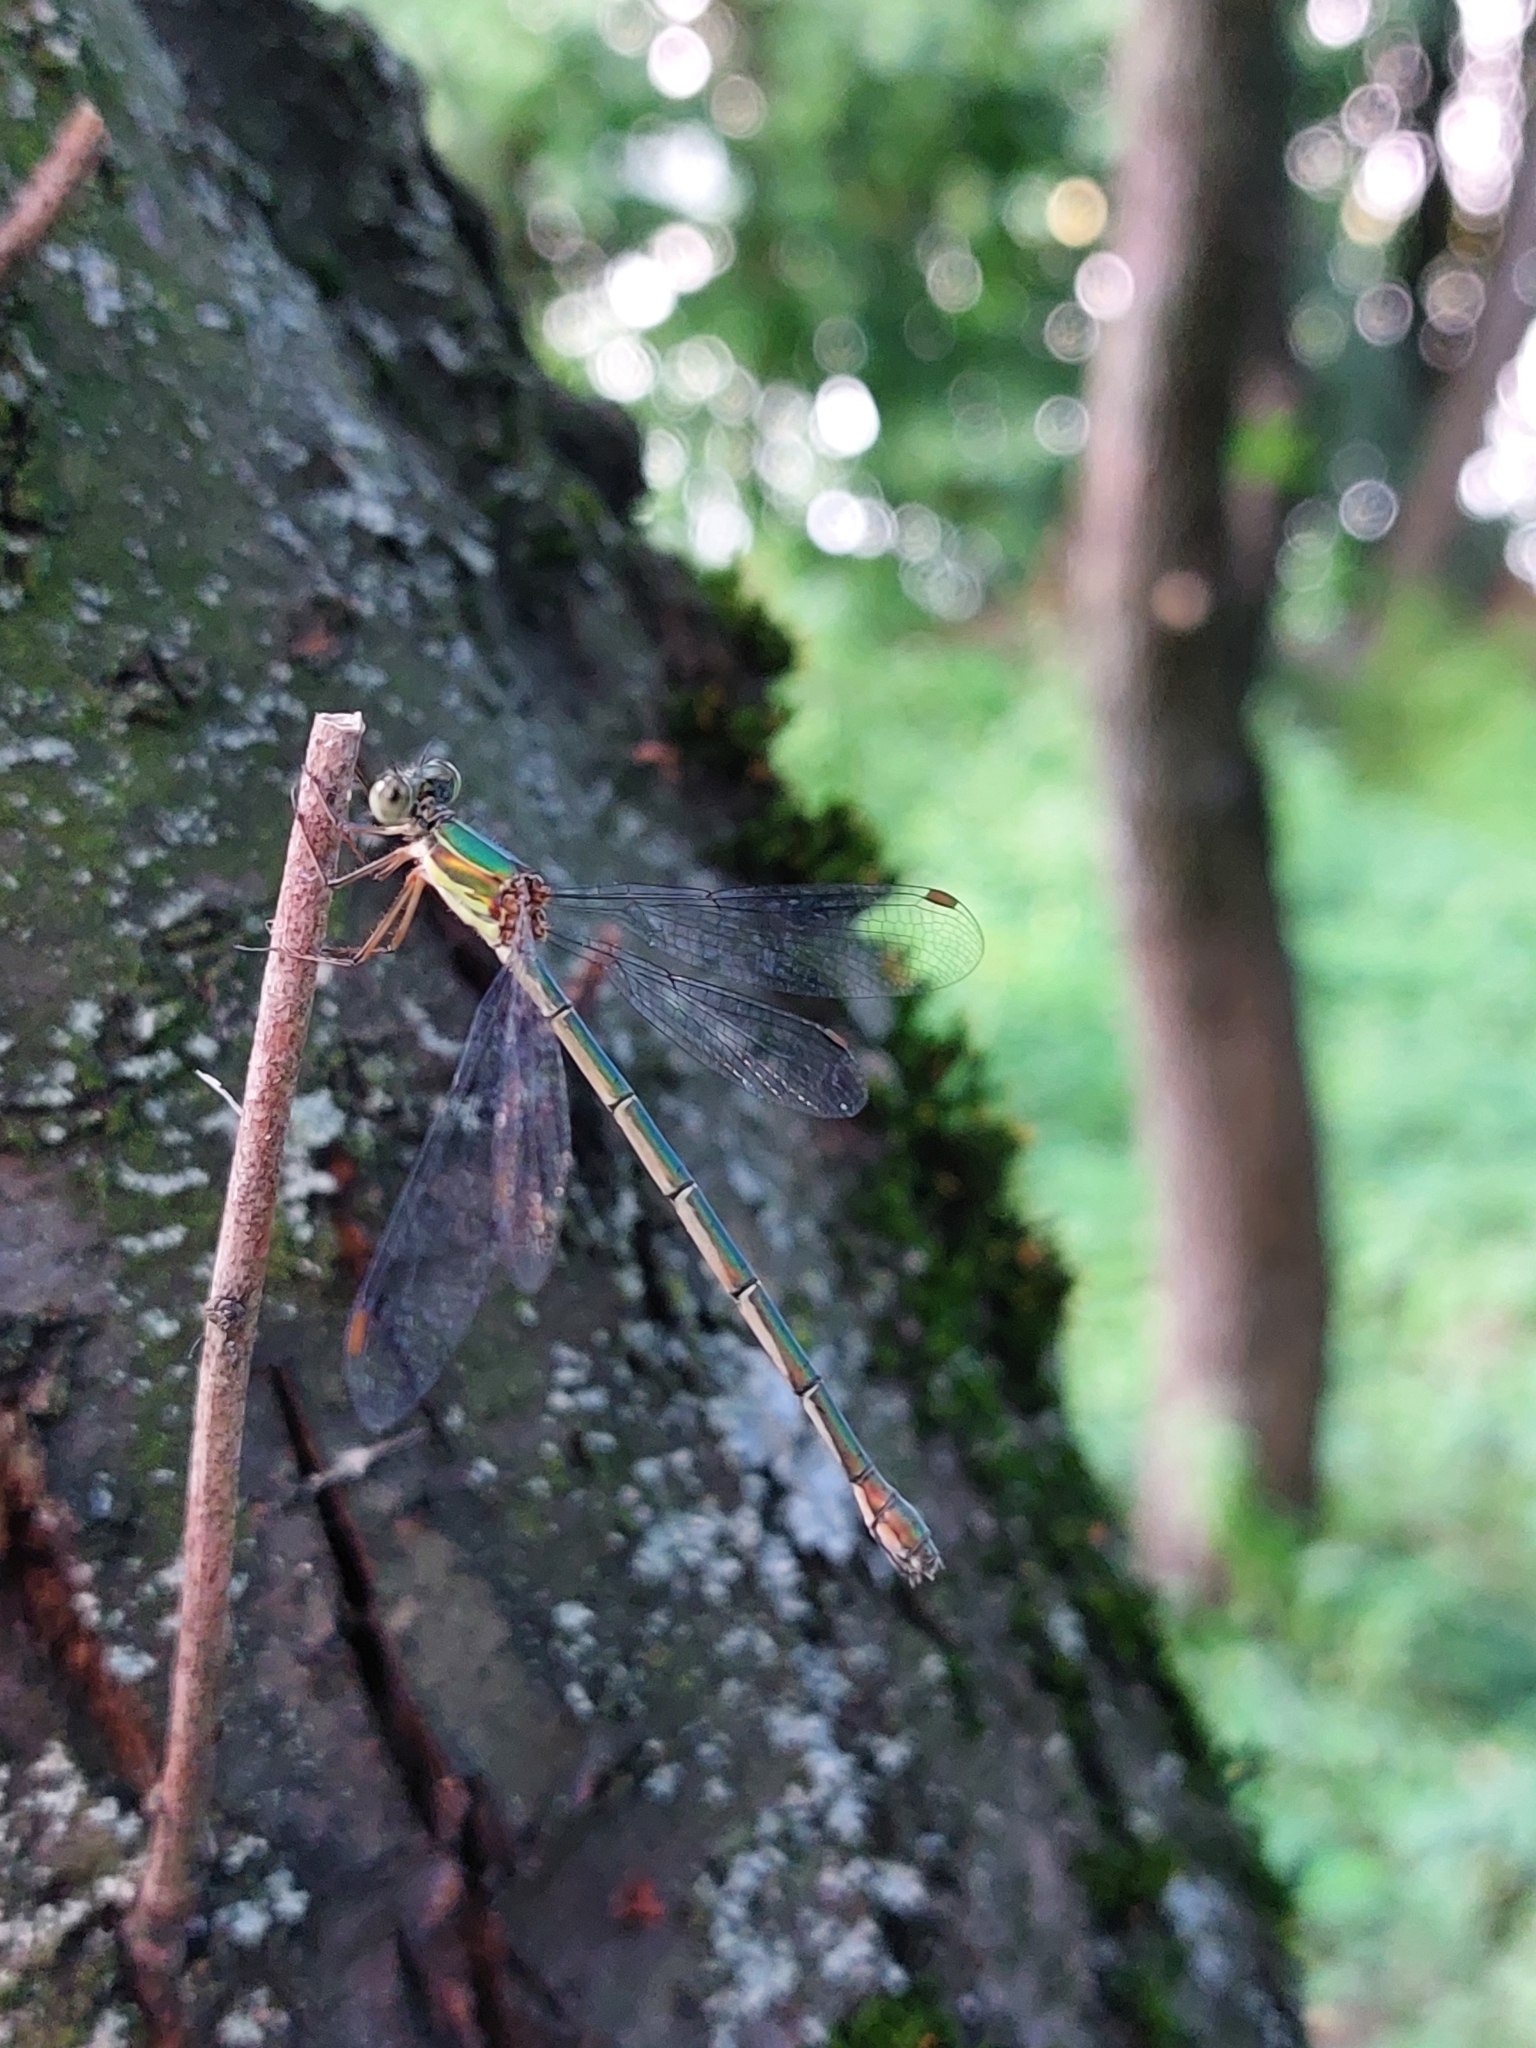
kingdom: Animalia
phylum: Arthropoda
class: Insecta
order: Odonata
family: Lestidae
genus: Chalcolestes
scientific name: Chalcolestes parvidens
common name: Eastern willow spreadwing
